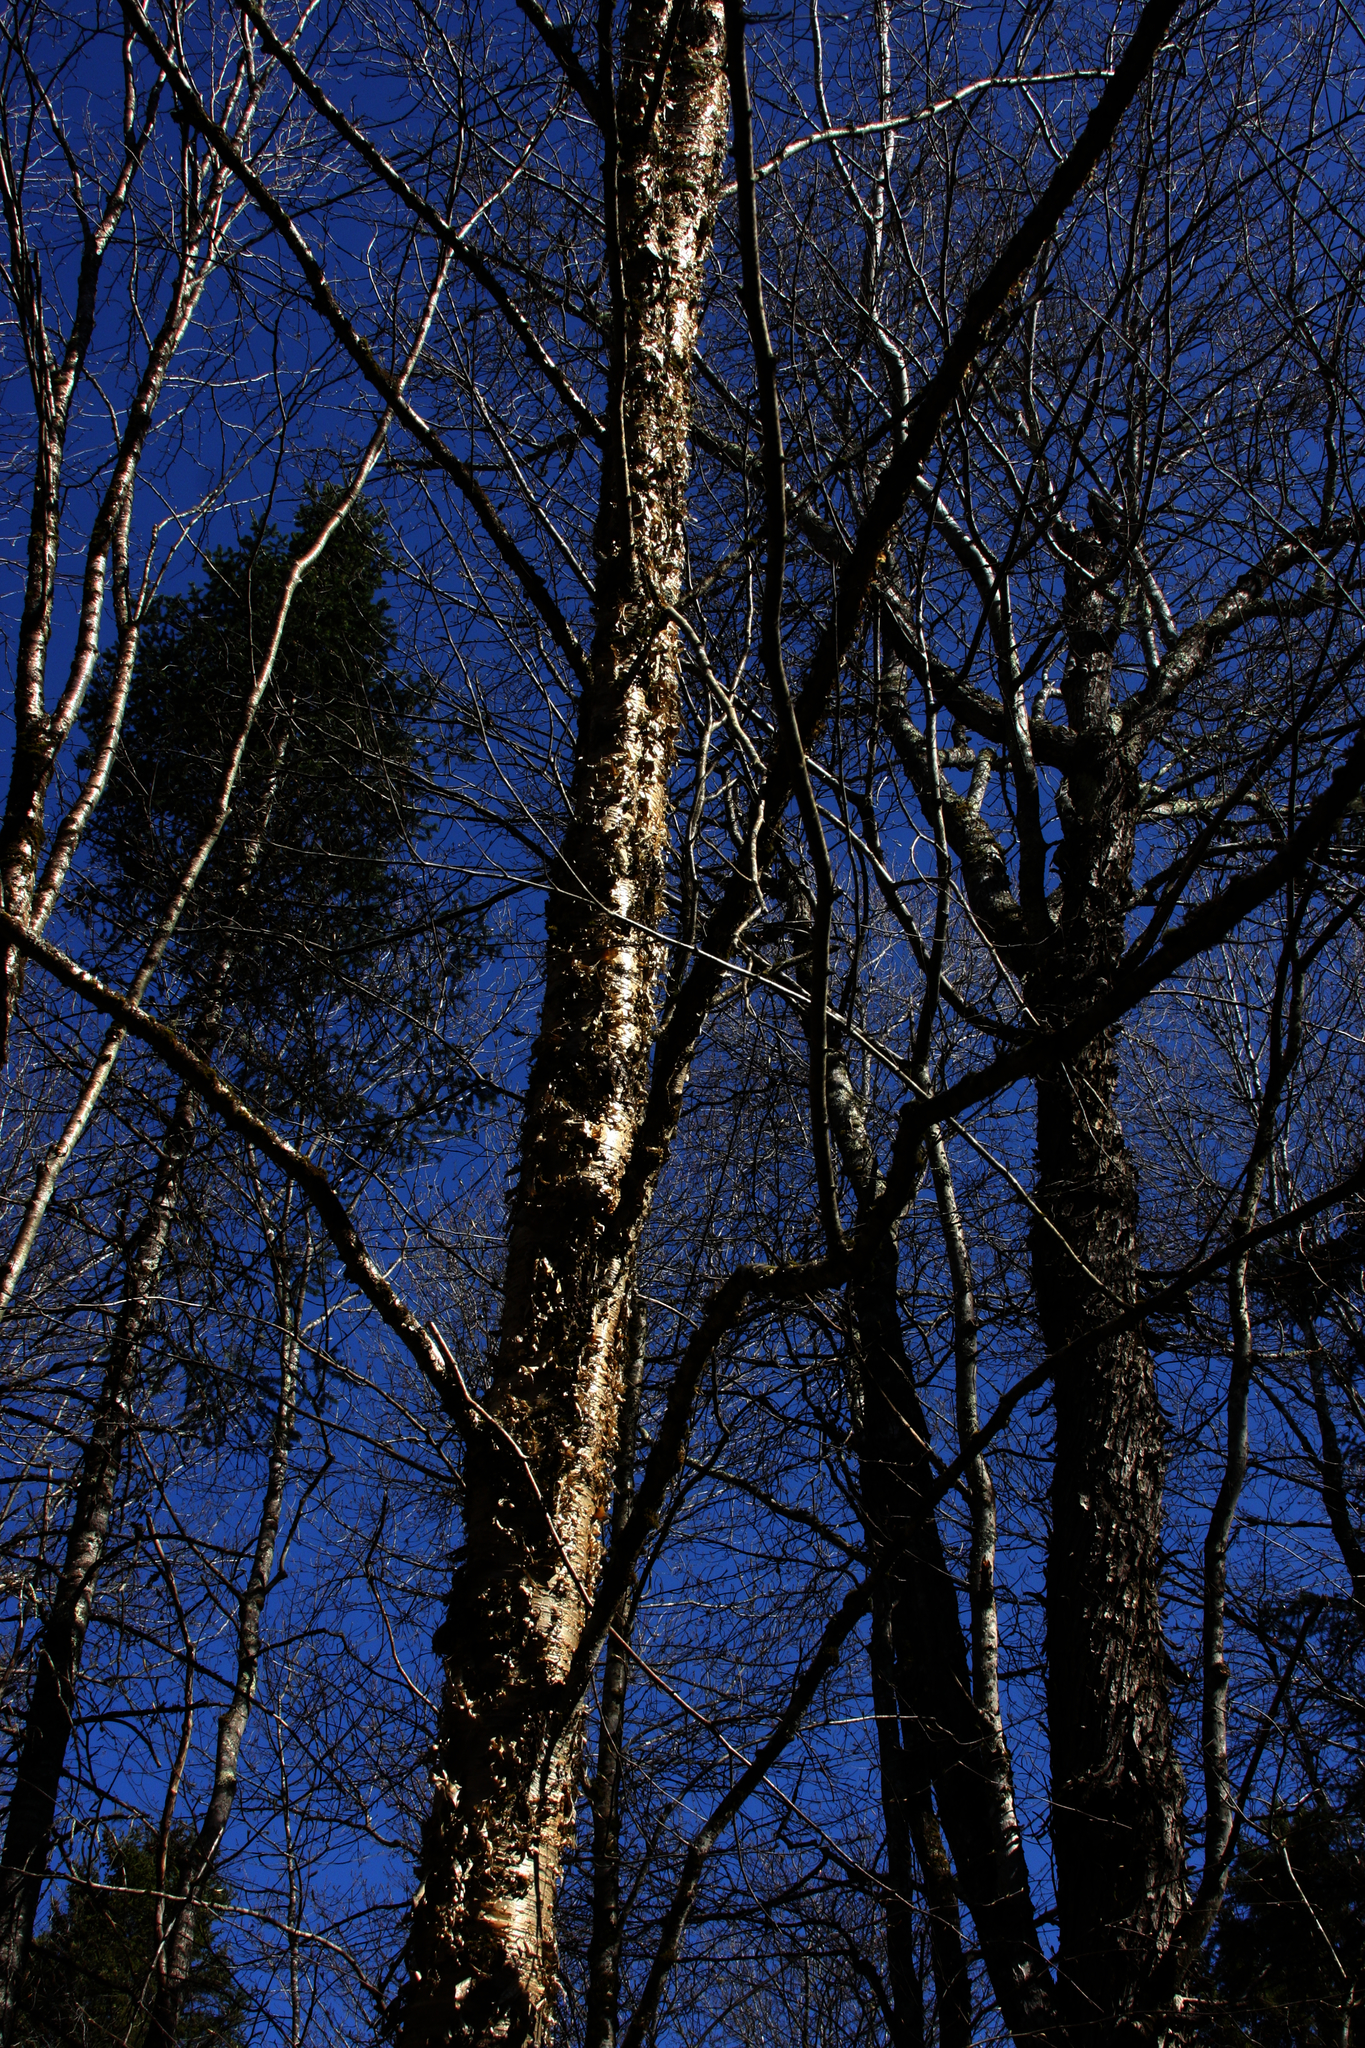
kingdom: Plantae
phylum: Tracheophyta
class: Magnoliopsida
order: Fagales
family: Betulaceae
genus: Betula
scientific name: Betula alleghaniensis
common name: Yellow birch
